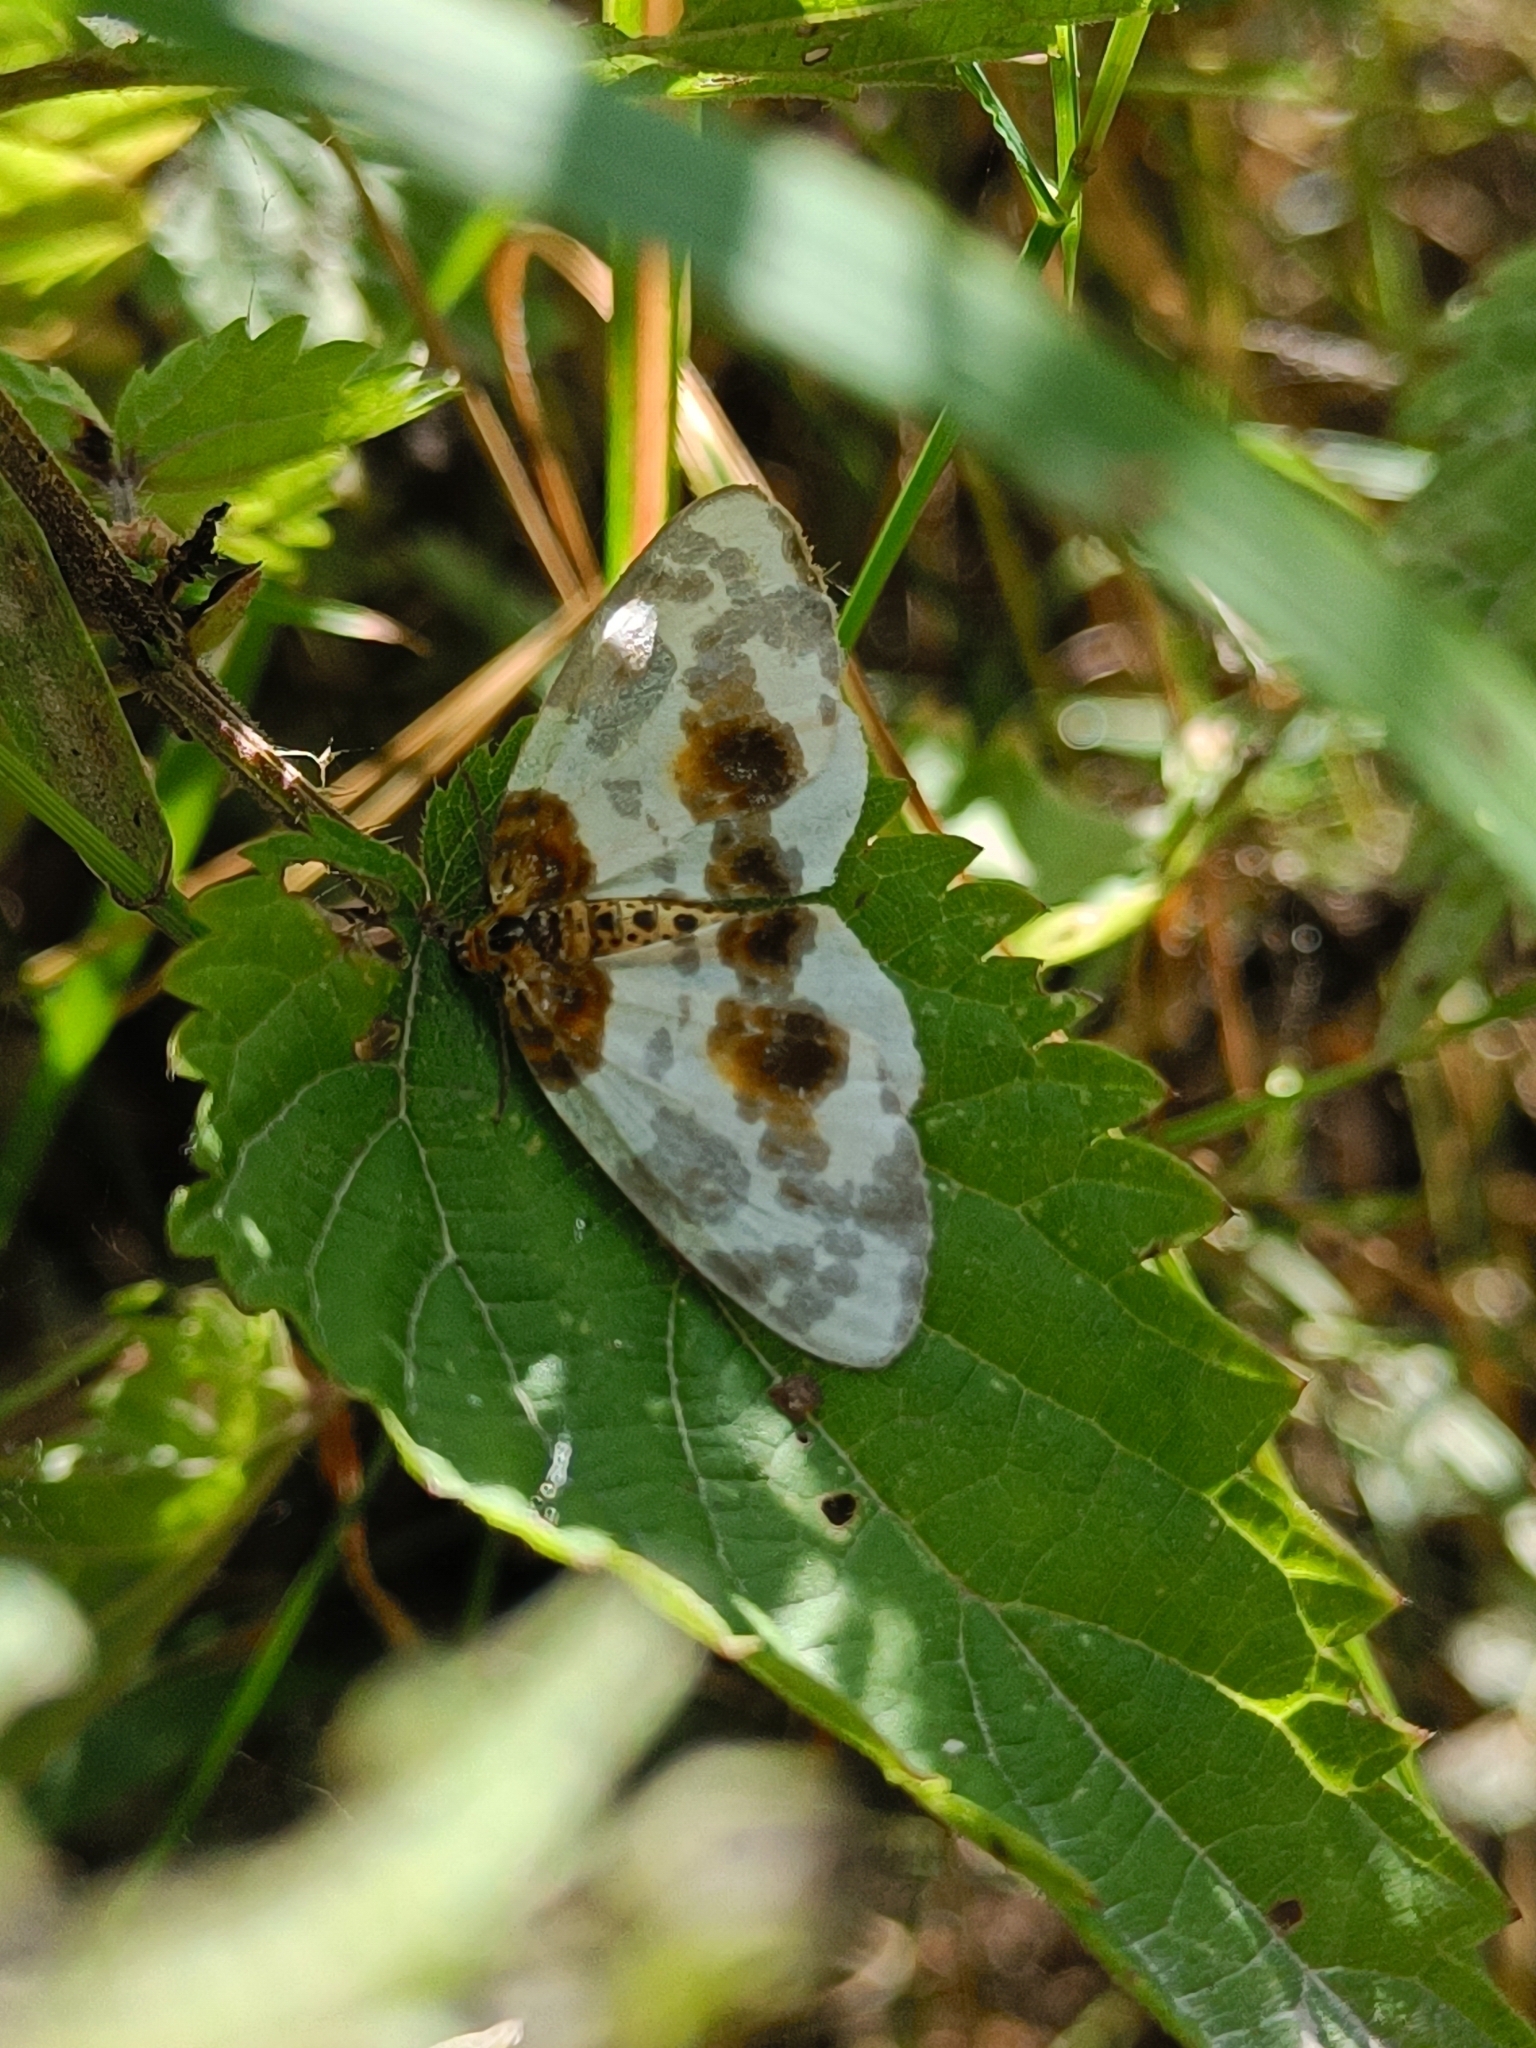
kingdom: Animalia
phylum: Arthropoda
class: Insecta
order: Lepidoptera
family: Geometridae
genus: Abraxas
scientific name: Abraxas sylvata
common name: Clouded magpie
